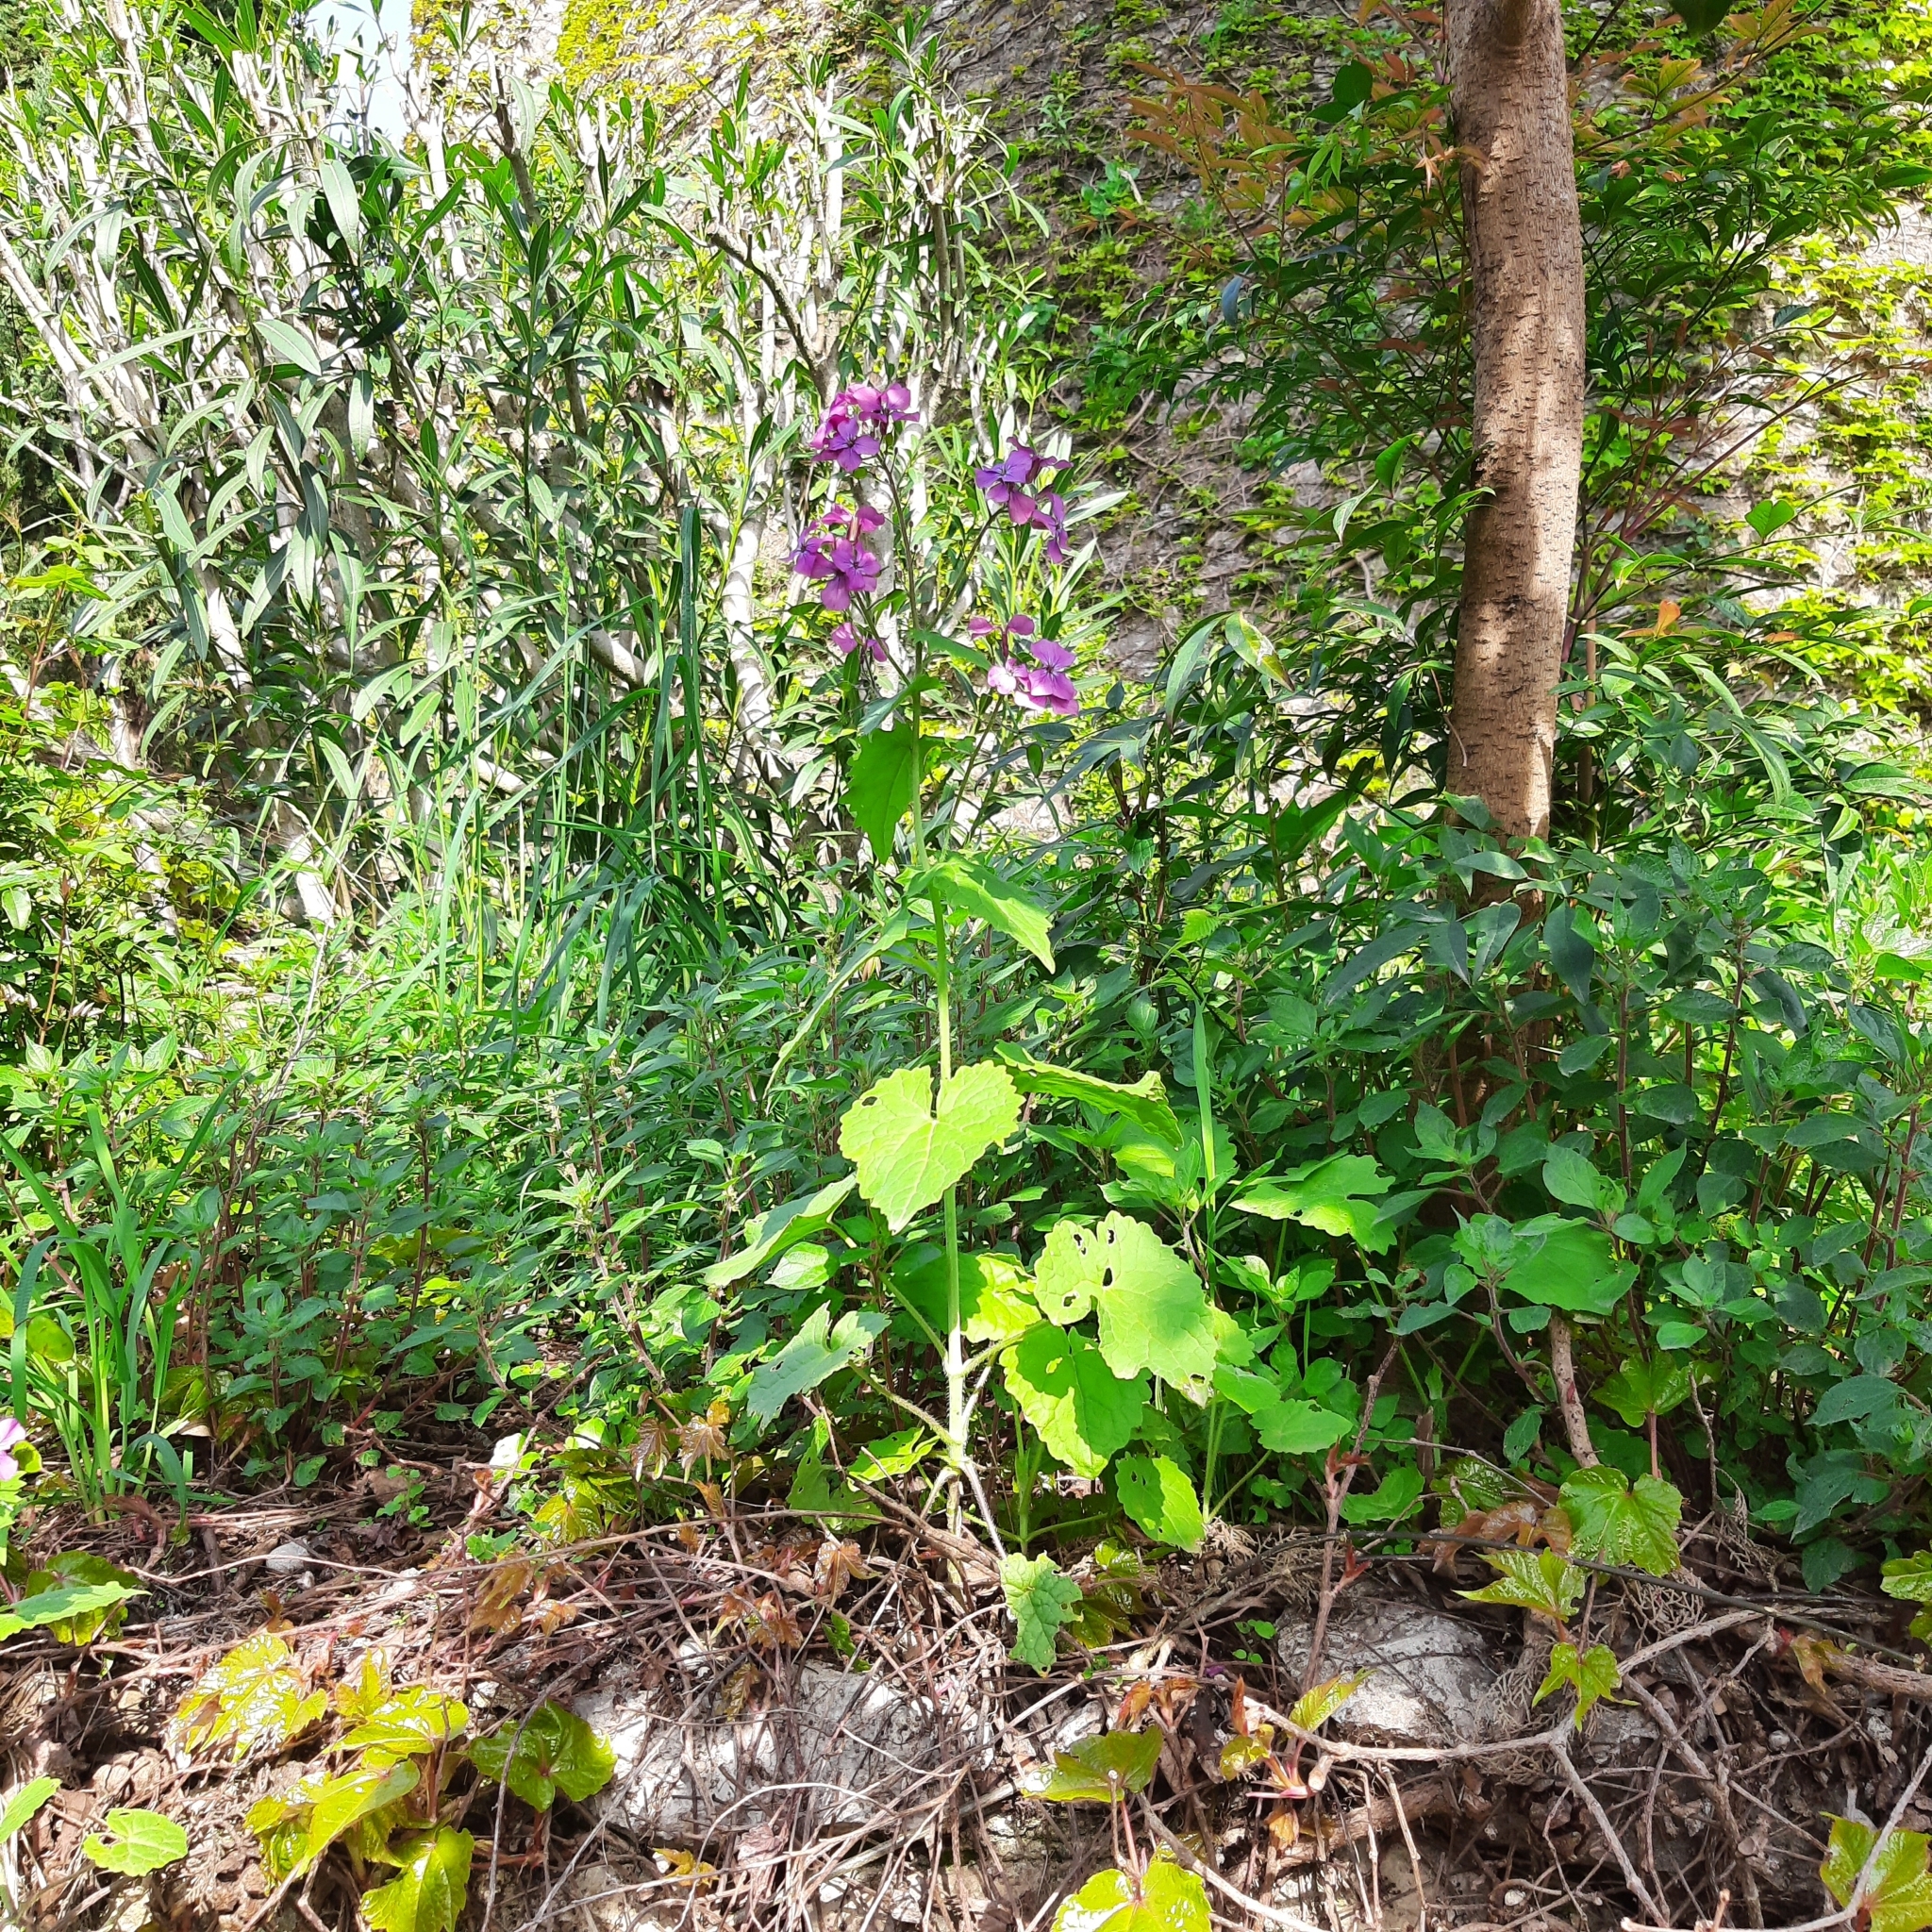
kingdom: Plantae
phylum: Tracheophyta
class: Magnoliopsida
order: Brassicales
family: Brassicaceae
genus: Lunaria
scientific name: Lunaria annua
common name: Honesty
